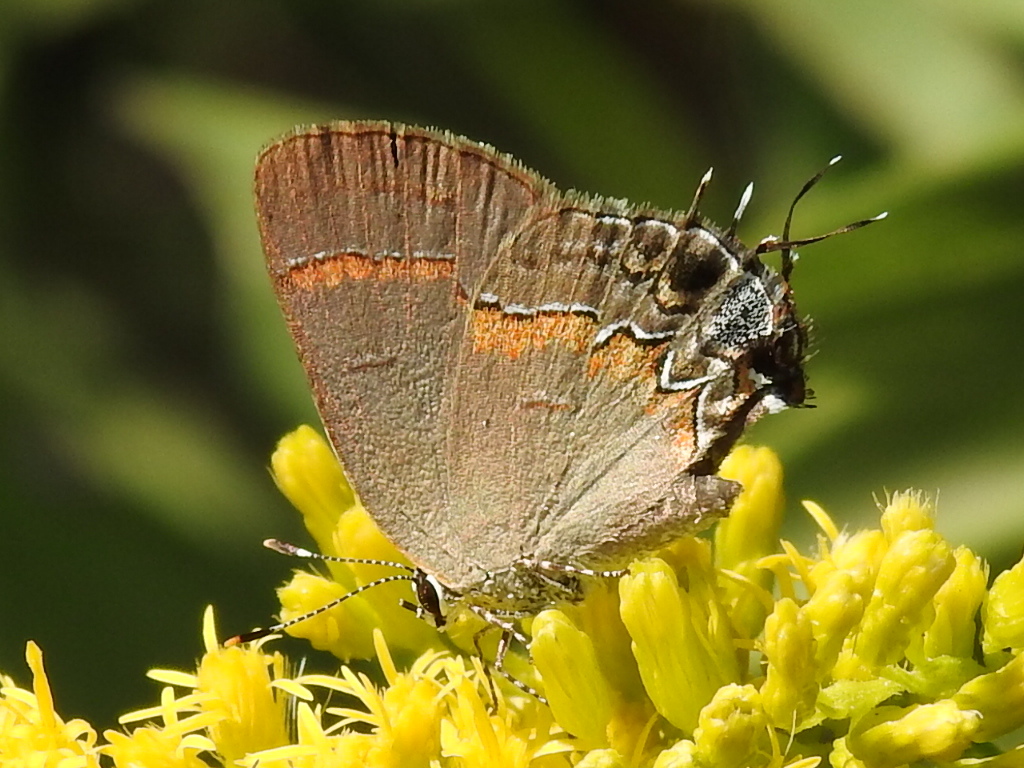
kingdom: Animalia
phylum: Arthropoda
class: Insecta
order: Lepidoptera
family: Lycaenidae
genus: Calycopis
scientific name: Calycopis cecrops
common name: Red-banded hairstreak
